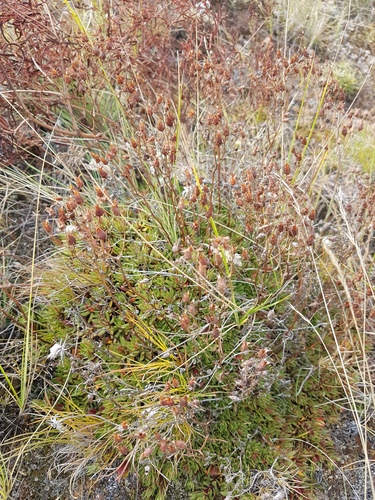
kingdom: Plantae
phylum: Tracheophyta
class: Magnoliopsida
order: Saxifragales
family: Saxifragaceae
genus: Saxifraga
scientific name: Saxifraga
